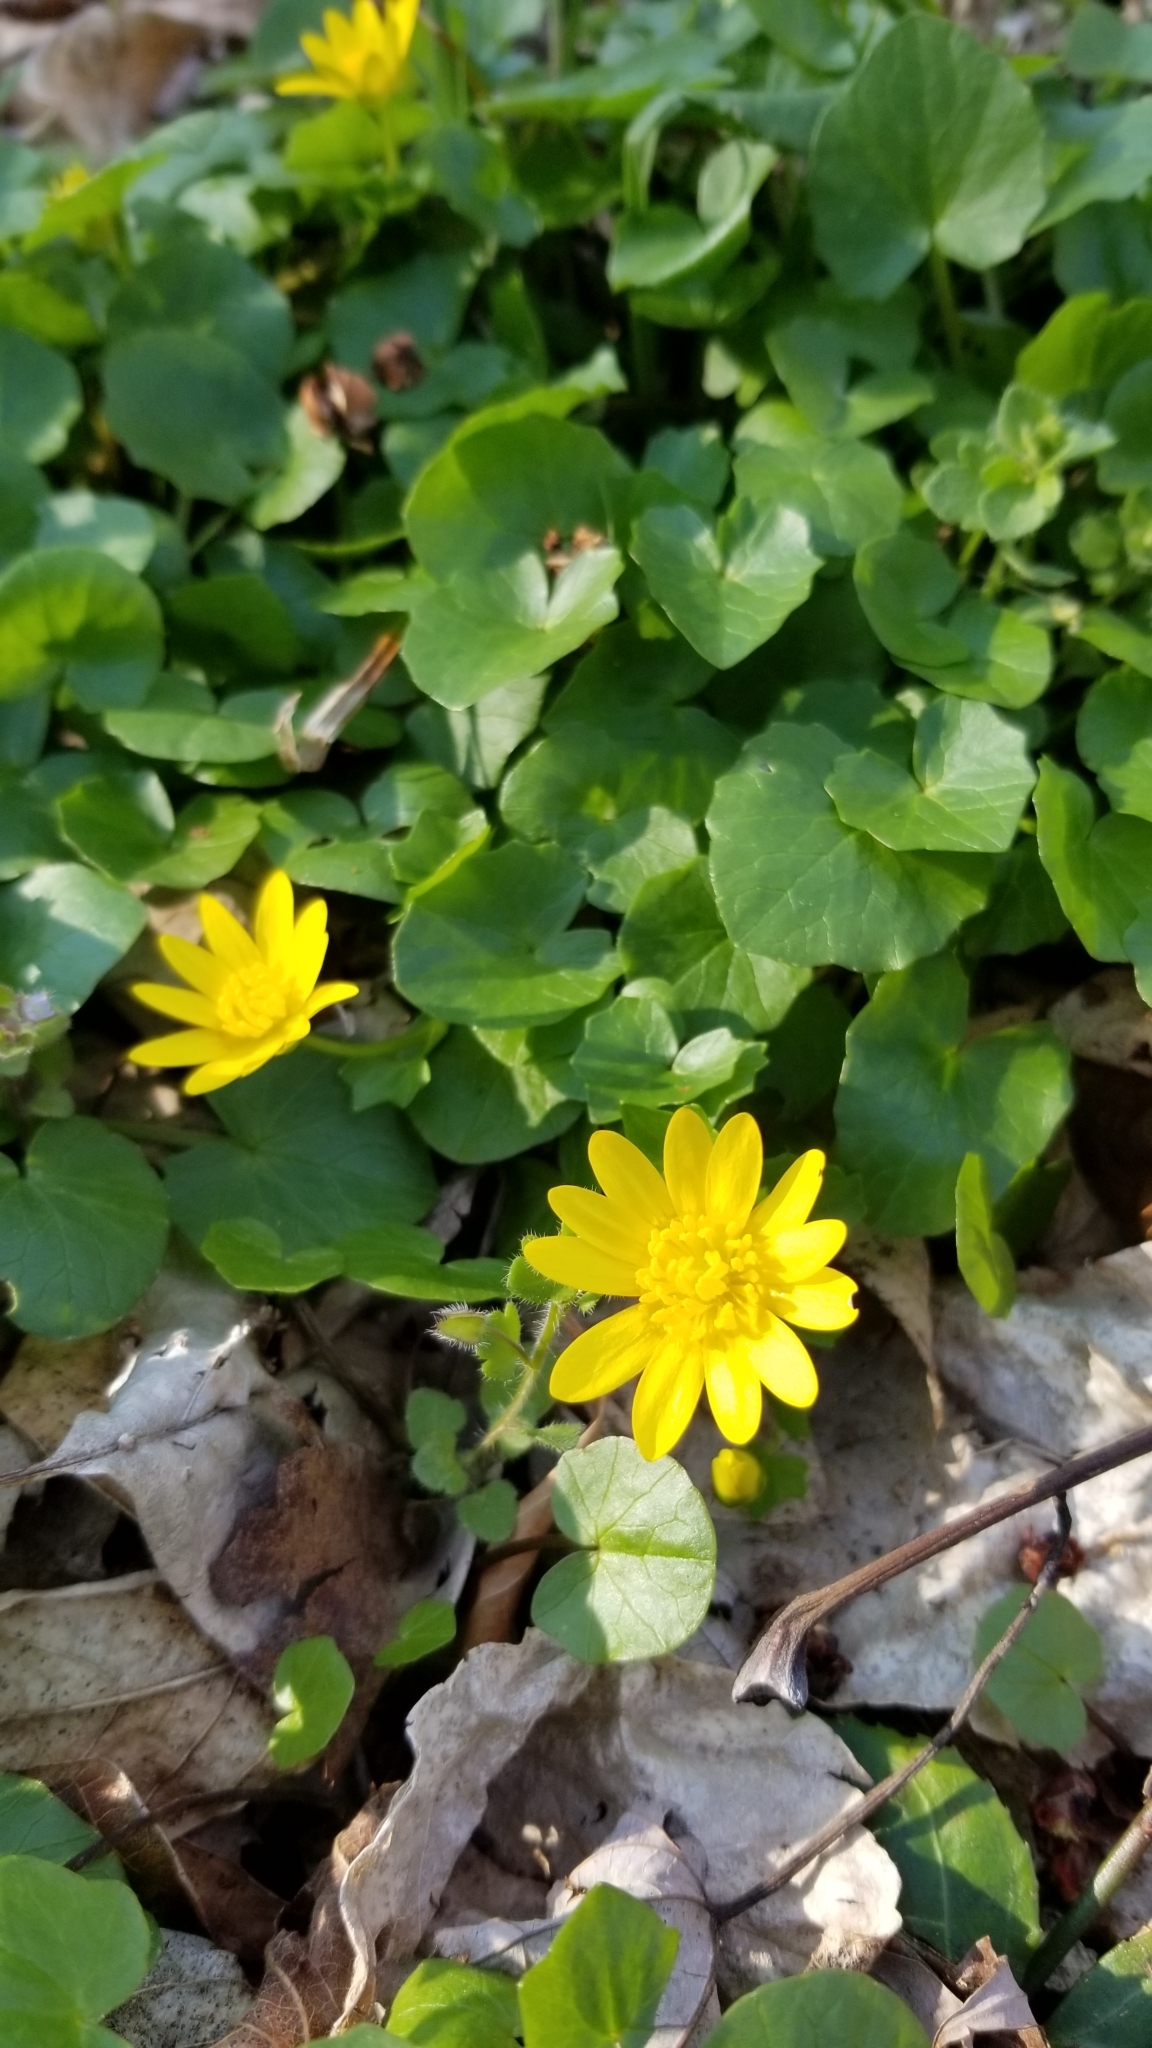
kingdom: Plantae
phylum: Tracheophyta
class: Magnoliopsida
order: Ranunculales
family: Ranunculaceae
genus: Ficaria
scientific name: Ficaria verna
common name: Lesser celandine
